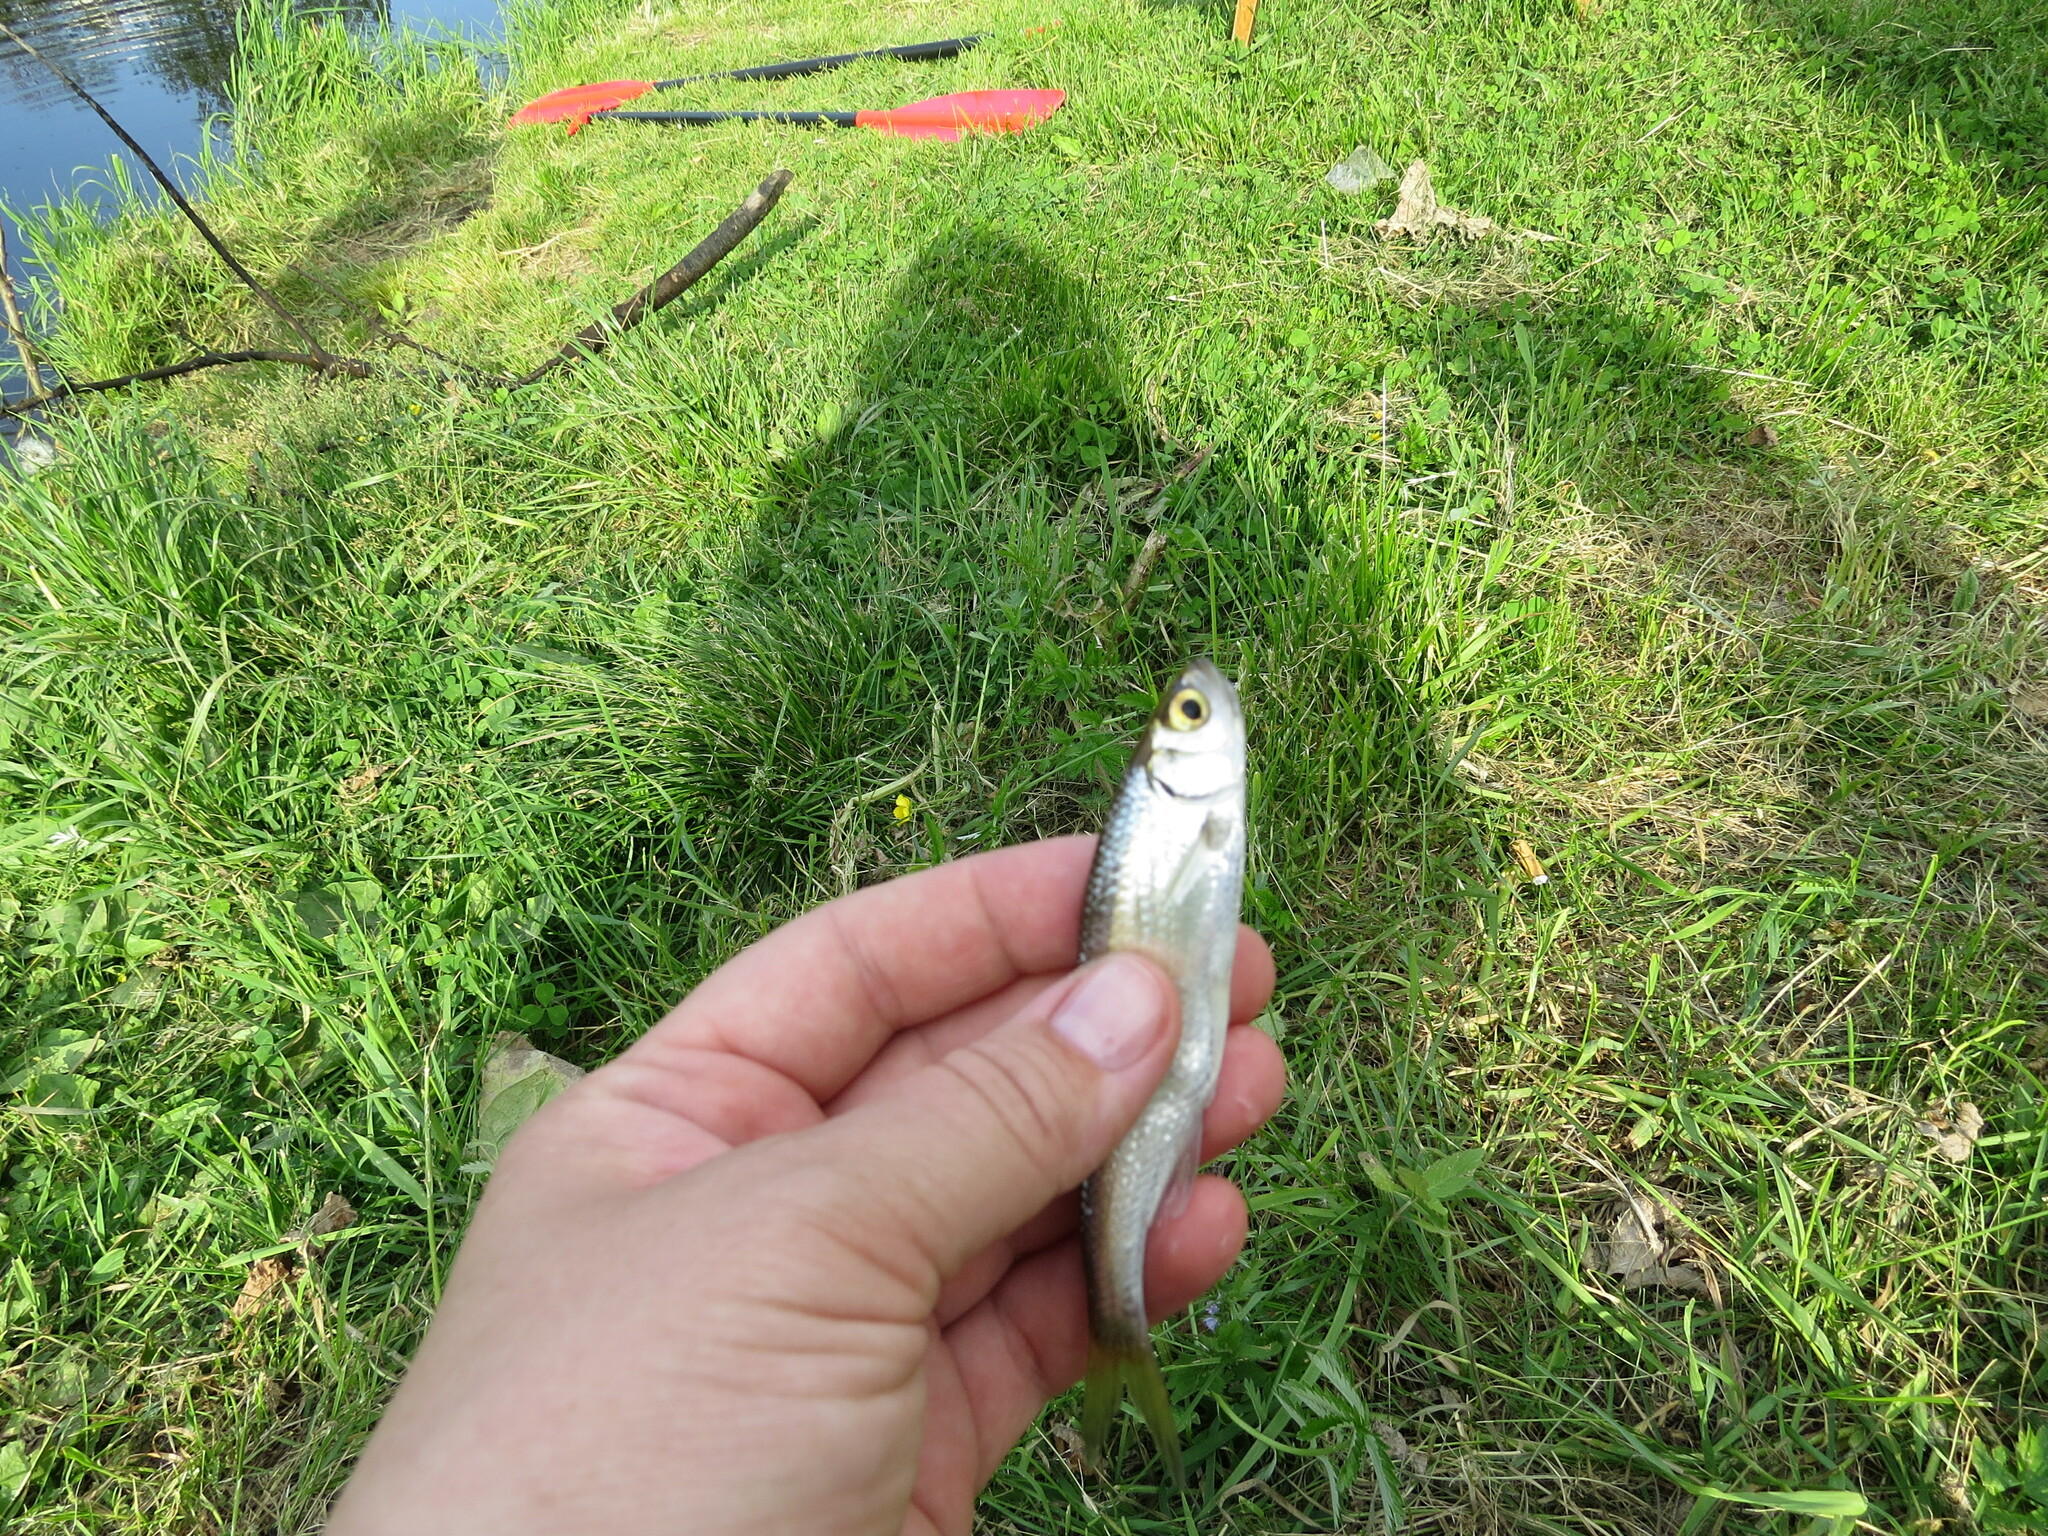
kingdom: Animalia
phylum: Chordata
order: Cypriniformes
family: Cyprinidae
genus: Alburnus
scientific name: Alburnus alburnus
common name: Bleak
